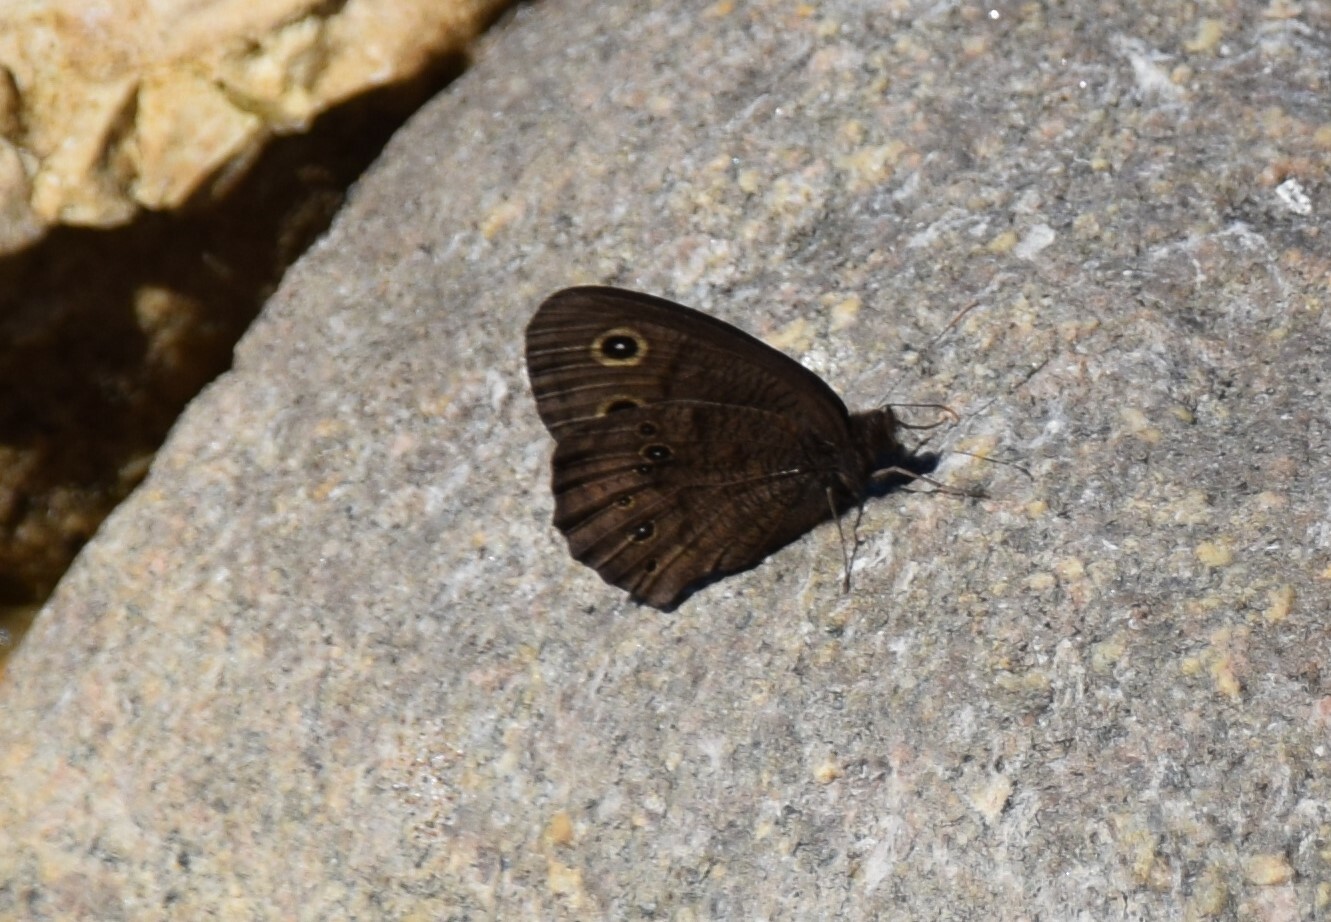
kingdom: Animalia
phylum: Arthropoda
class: Insecta
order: Lepidoptera
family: Nymphalidae
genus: Cercyonis
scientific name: Cercyonis pegala
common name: Common wood-nymph
